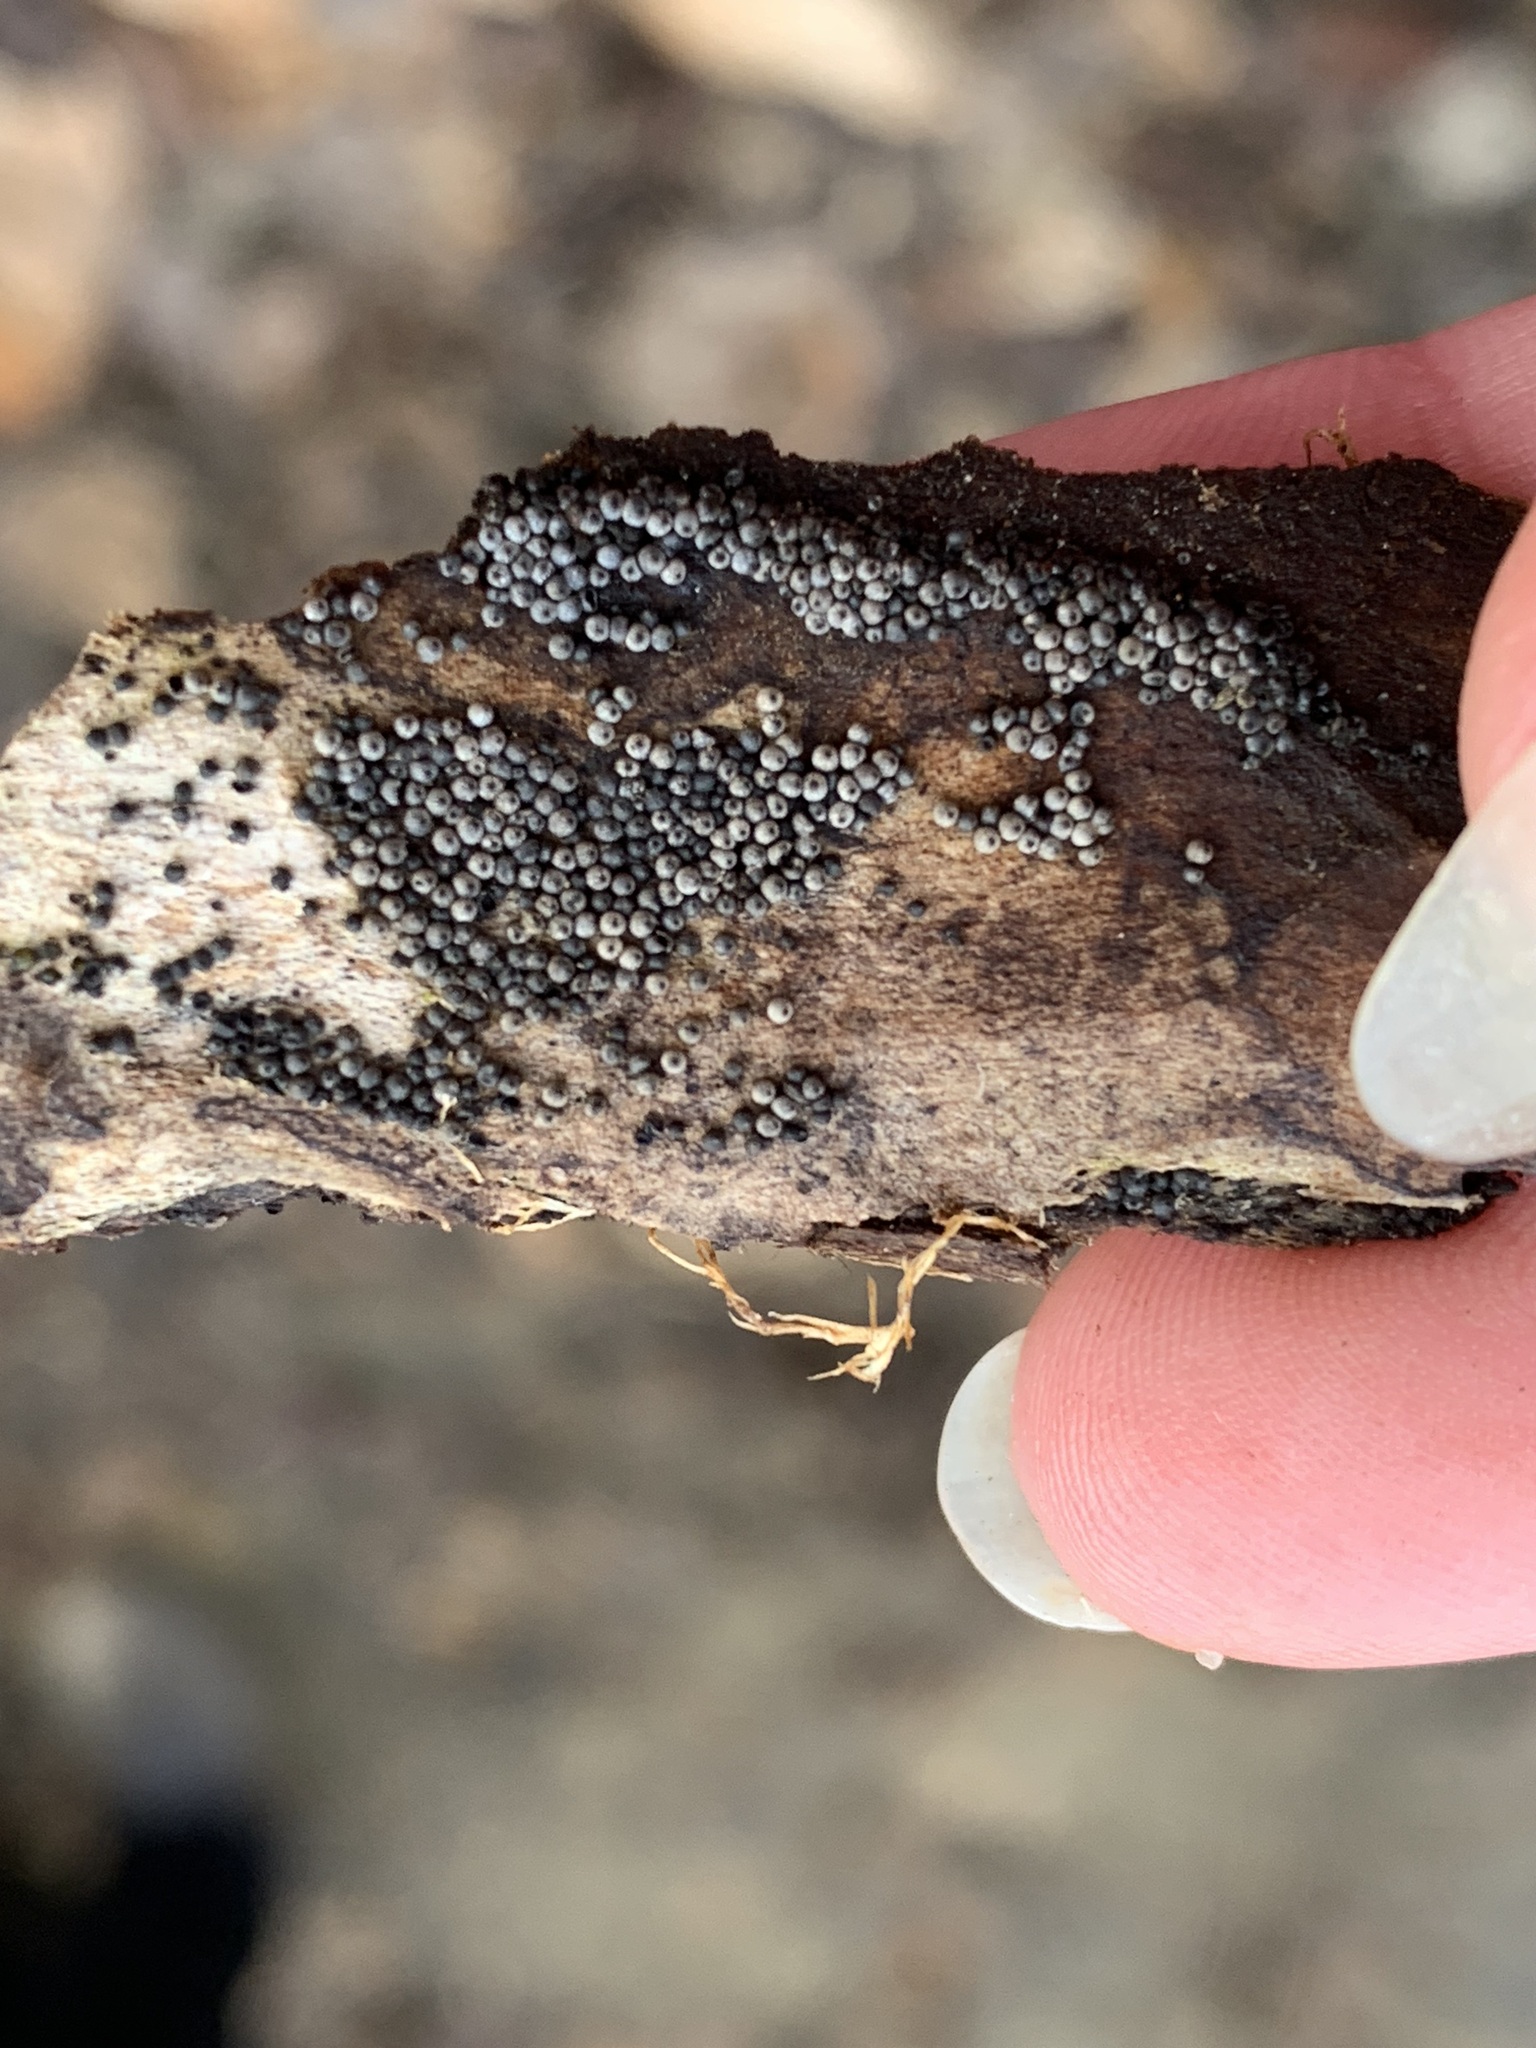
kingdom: Fungi
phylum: Ascomycota
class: Sordariomycetes
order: Sordariales
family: Lasiosphaeriaceae
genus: Lasiosphaeria
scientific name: Lasiosphaeria ovina
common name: Woolly woodwart
